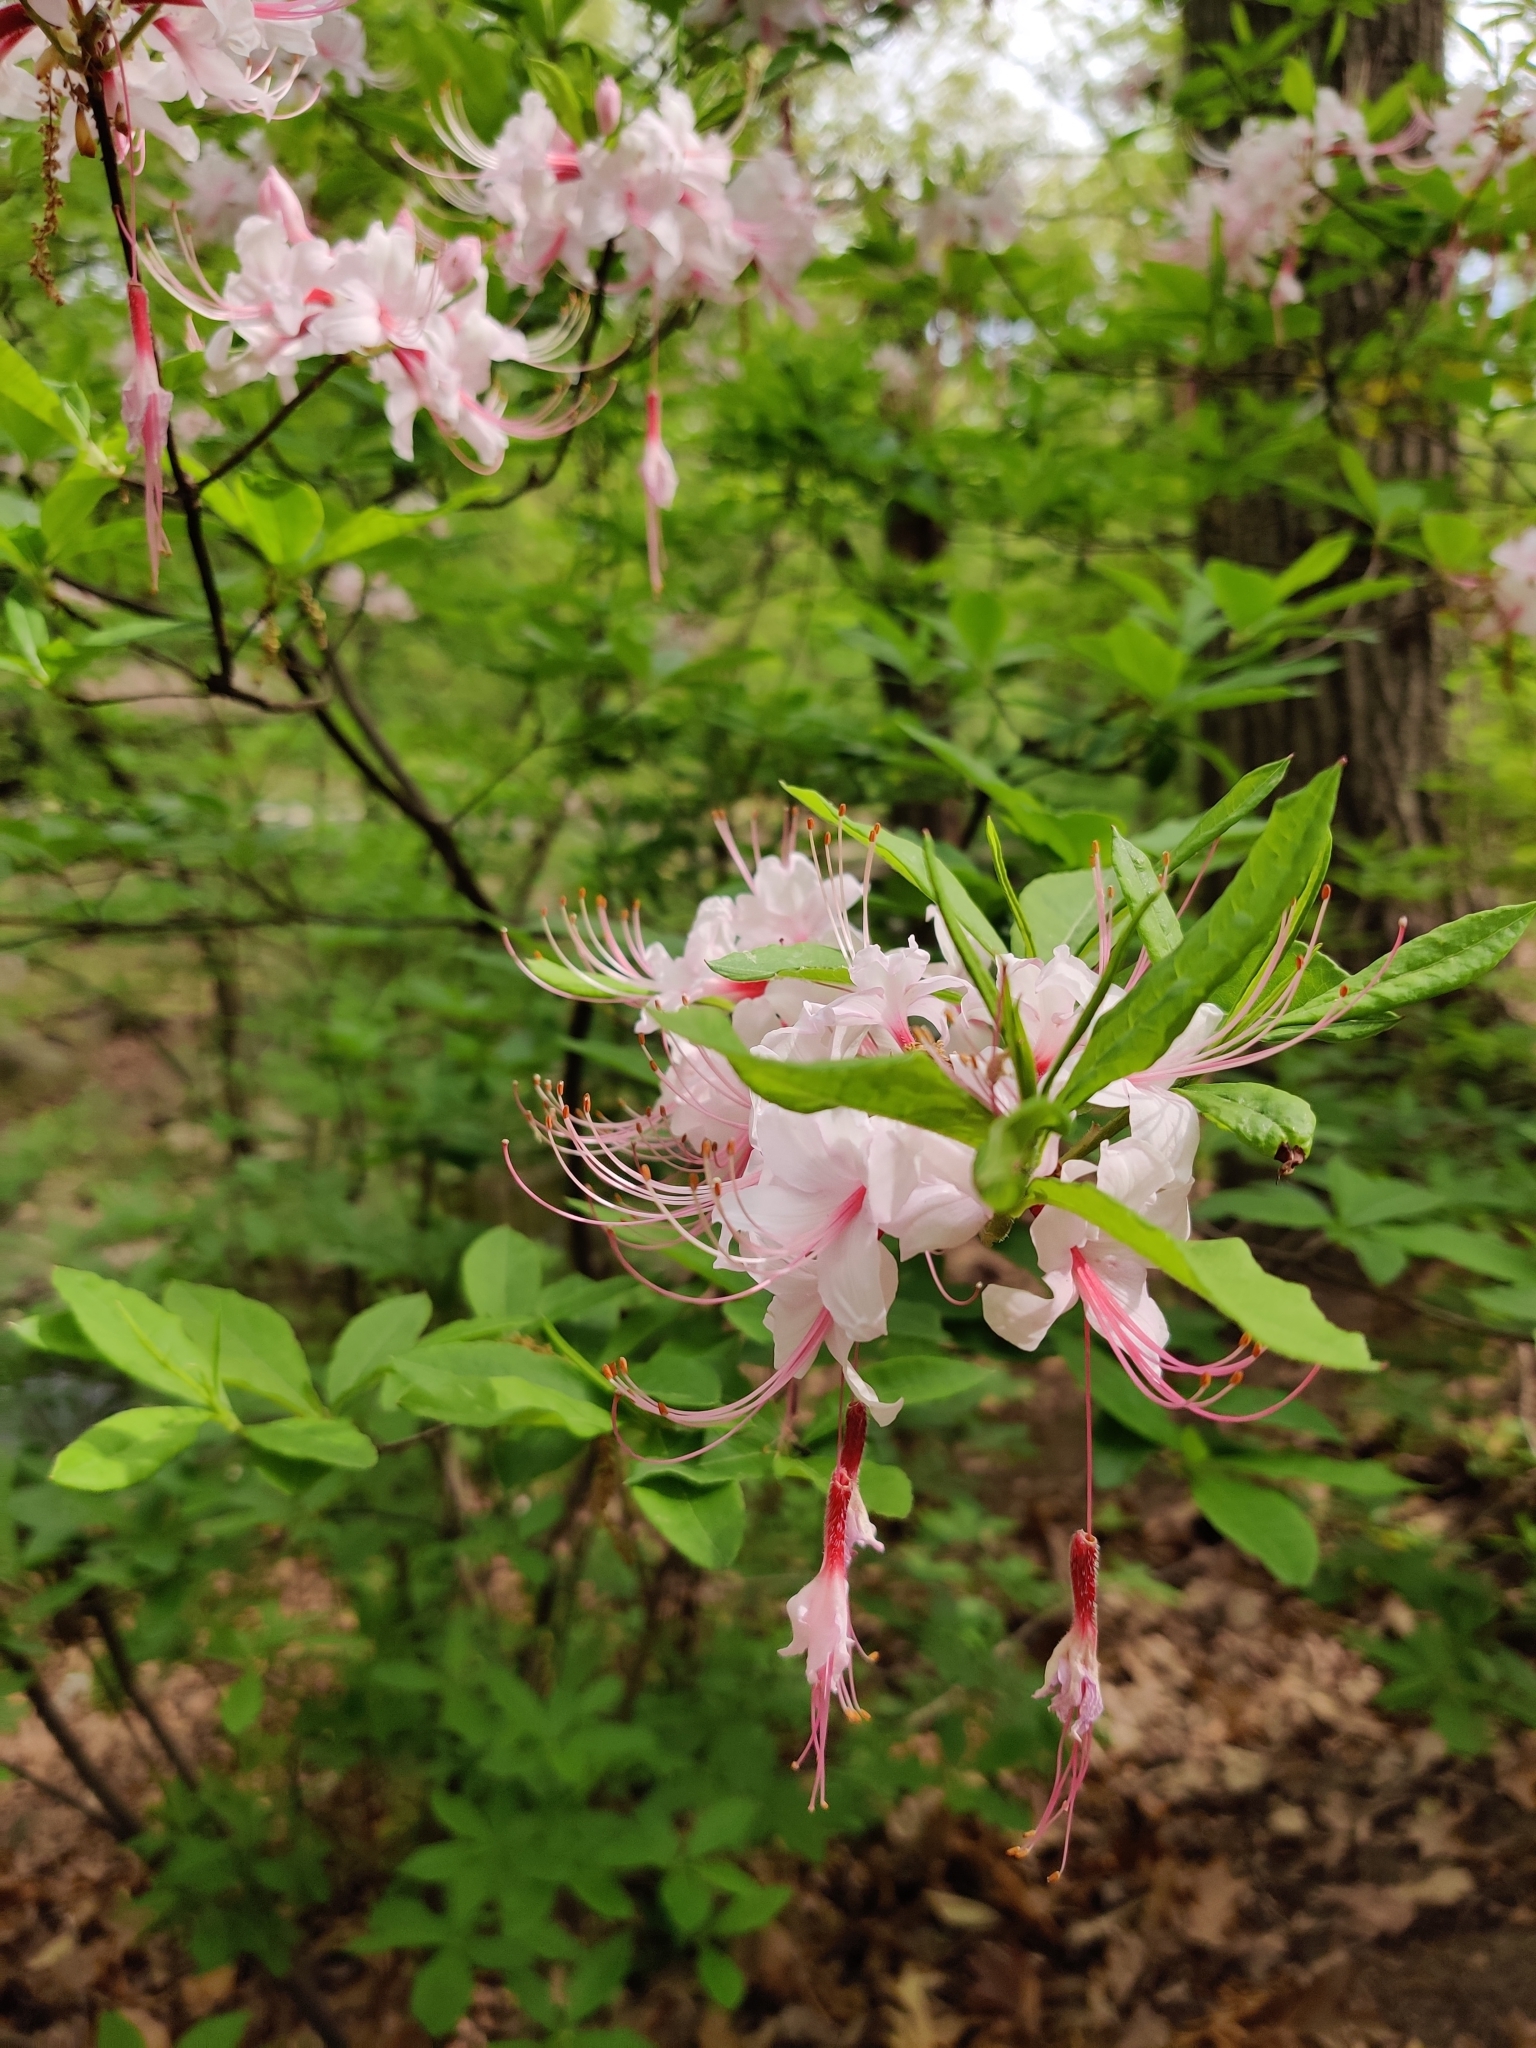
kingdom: Plantae
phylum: Tracheophyta
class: Magnoliopsida
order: Ericales
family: Ericaceae
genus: Rhododendron
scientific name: Rhododendron periclymenoides
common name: Election-pink
